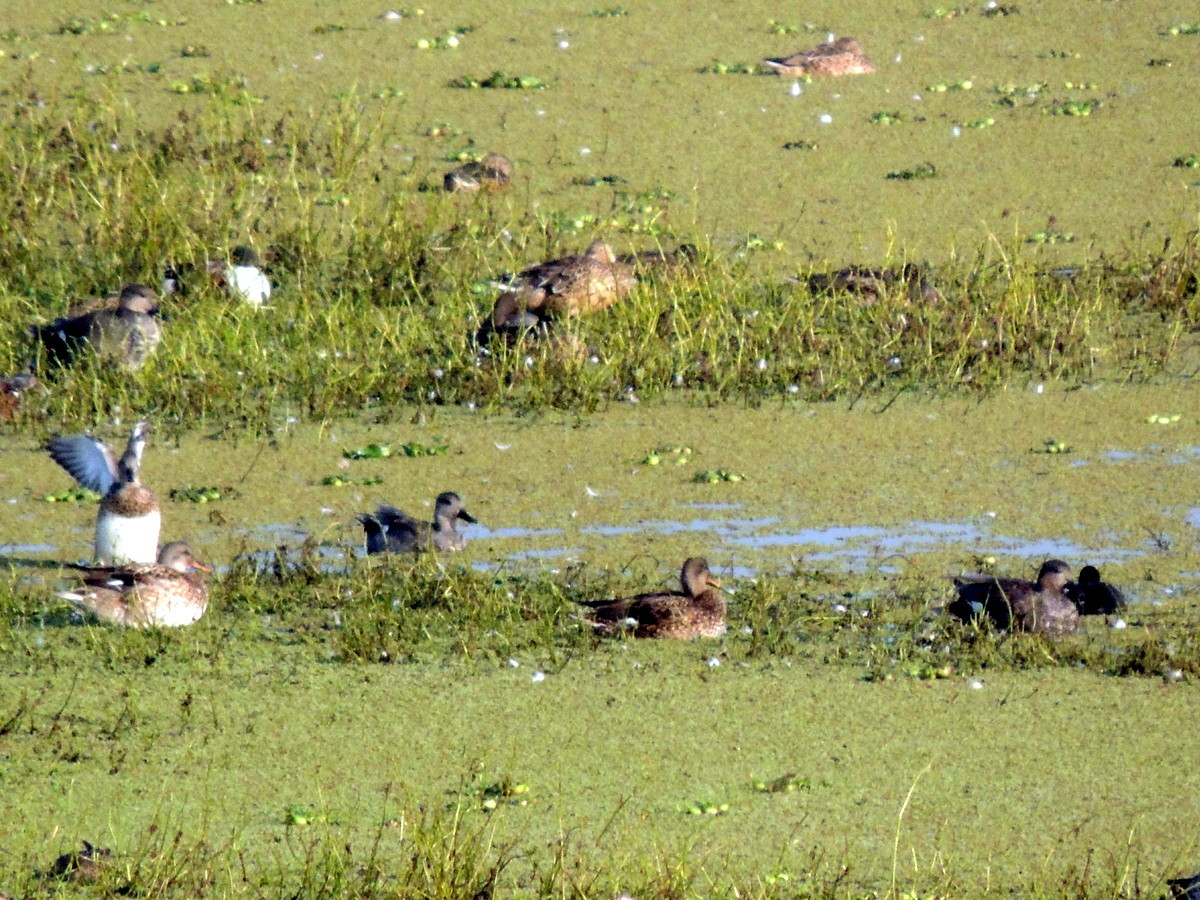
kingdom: Animalia
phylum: Chordata
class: Aves
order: Anseriformes
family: Anatidae
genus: Mareca
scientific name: Mareca strepera
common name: Gadwall
